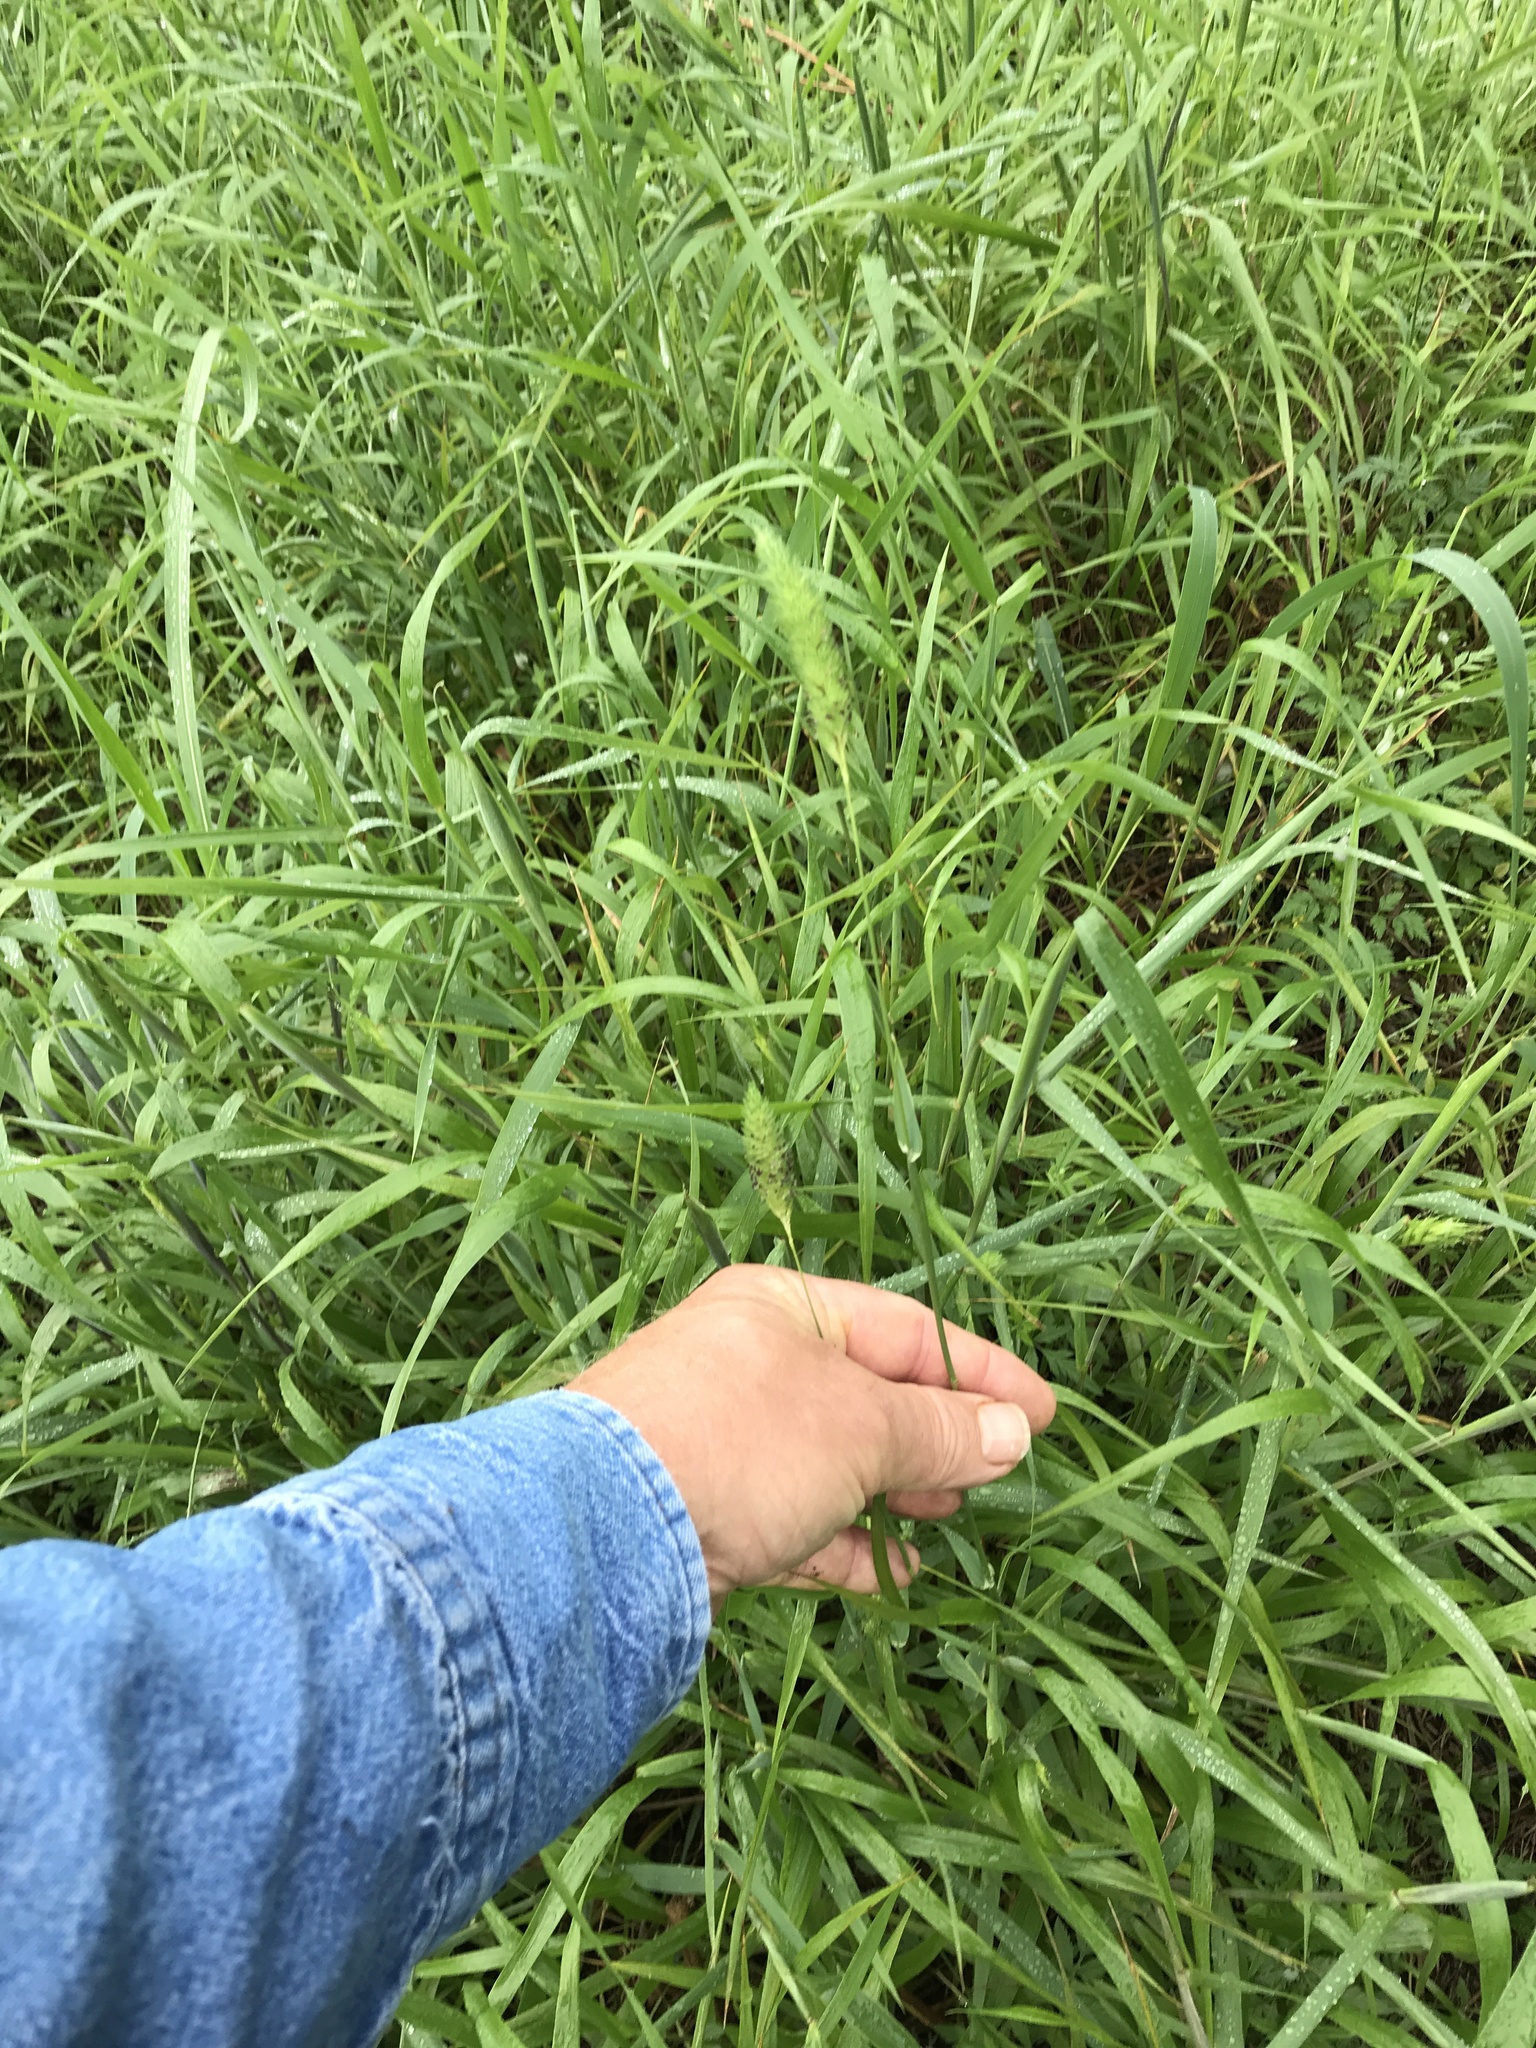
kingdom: Plantae
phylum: Tracheophyta
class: Liliopsida
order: Poales
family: Poaceae
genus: Phalaris
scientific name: Phalaris caroliniana
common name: May grass
